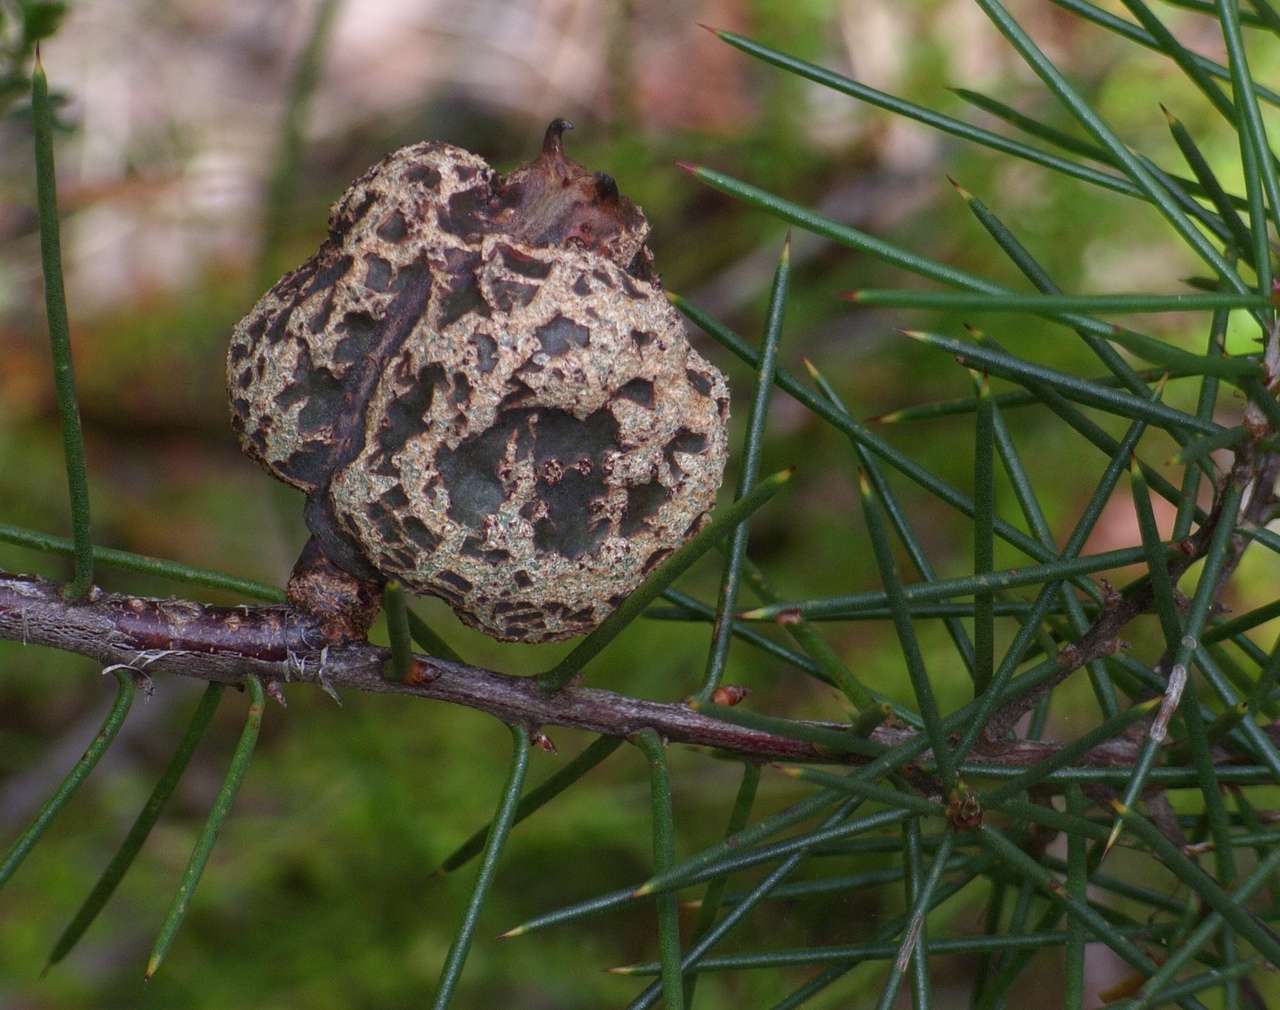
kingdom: Plantae
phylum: Tracheophyta
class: Magnoliopsida
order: Proteales
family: Proteaceae
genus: Hakea
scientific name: Hakea decurrens
